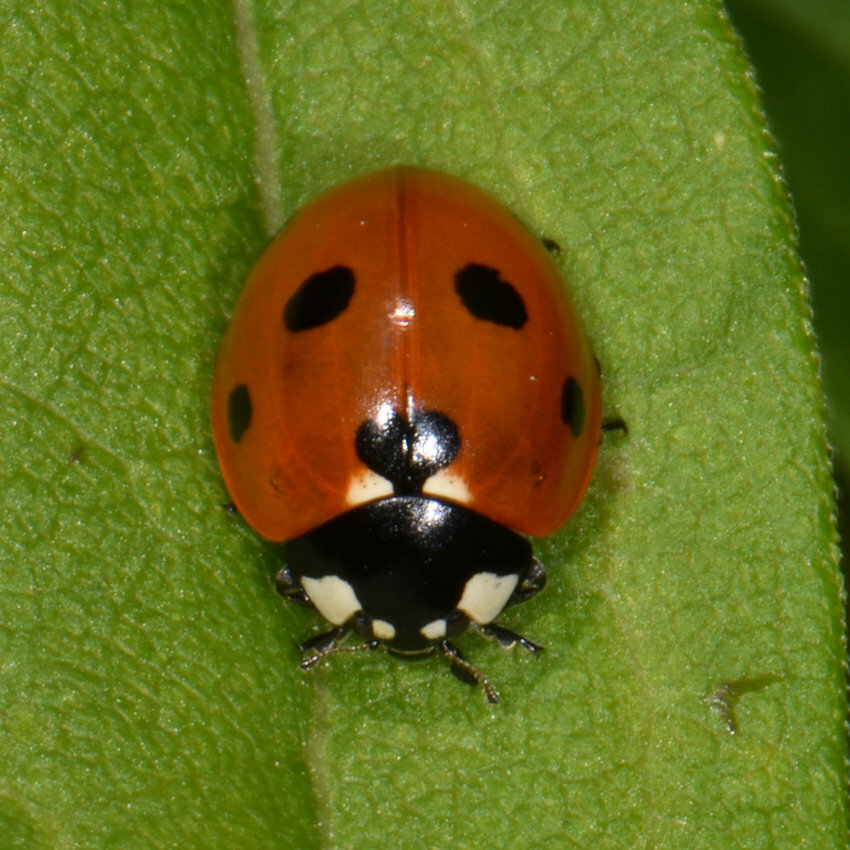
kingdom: Animalia
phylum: Arthropoda
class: Insecta
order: Coleoptera
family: Coccinellidae
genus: Coccinella
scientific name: Coccinella septempunctata
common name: Sevenspotted lady beetle
